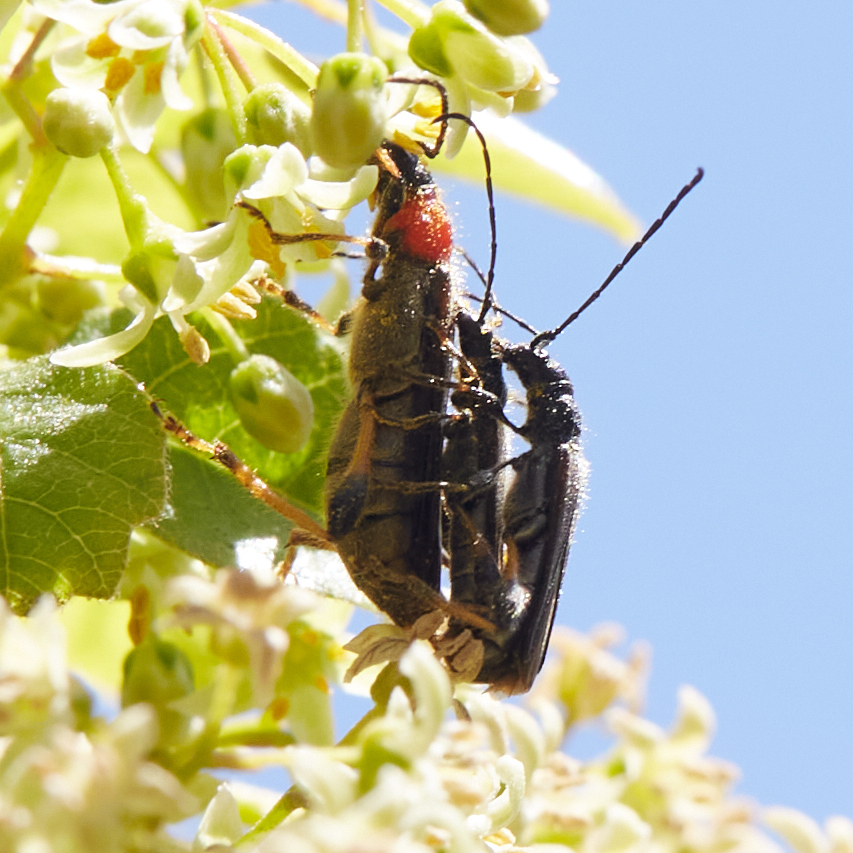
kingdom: Animalia
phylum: Arthropoda
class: Insecta
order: Coleoptera
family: Cerambycidae
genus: Callimoxys
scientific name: Callimoxys fuscipennis
